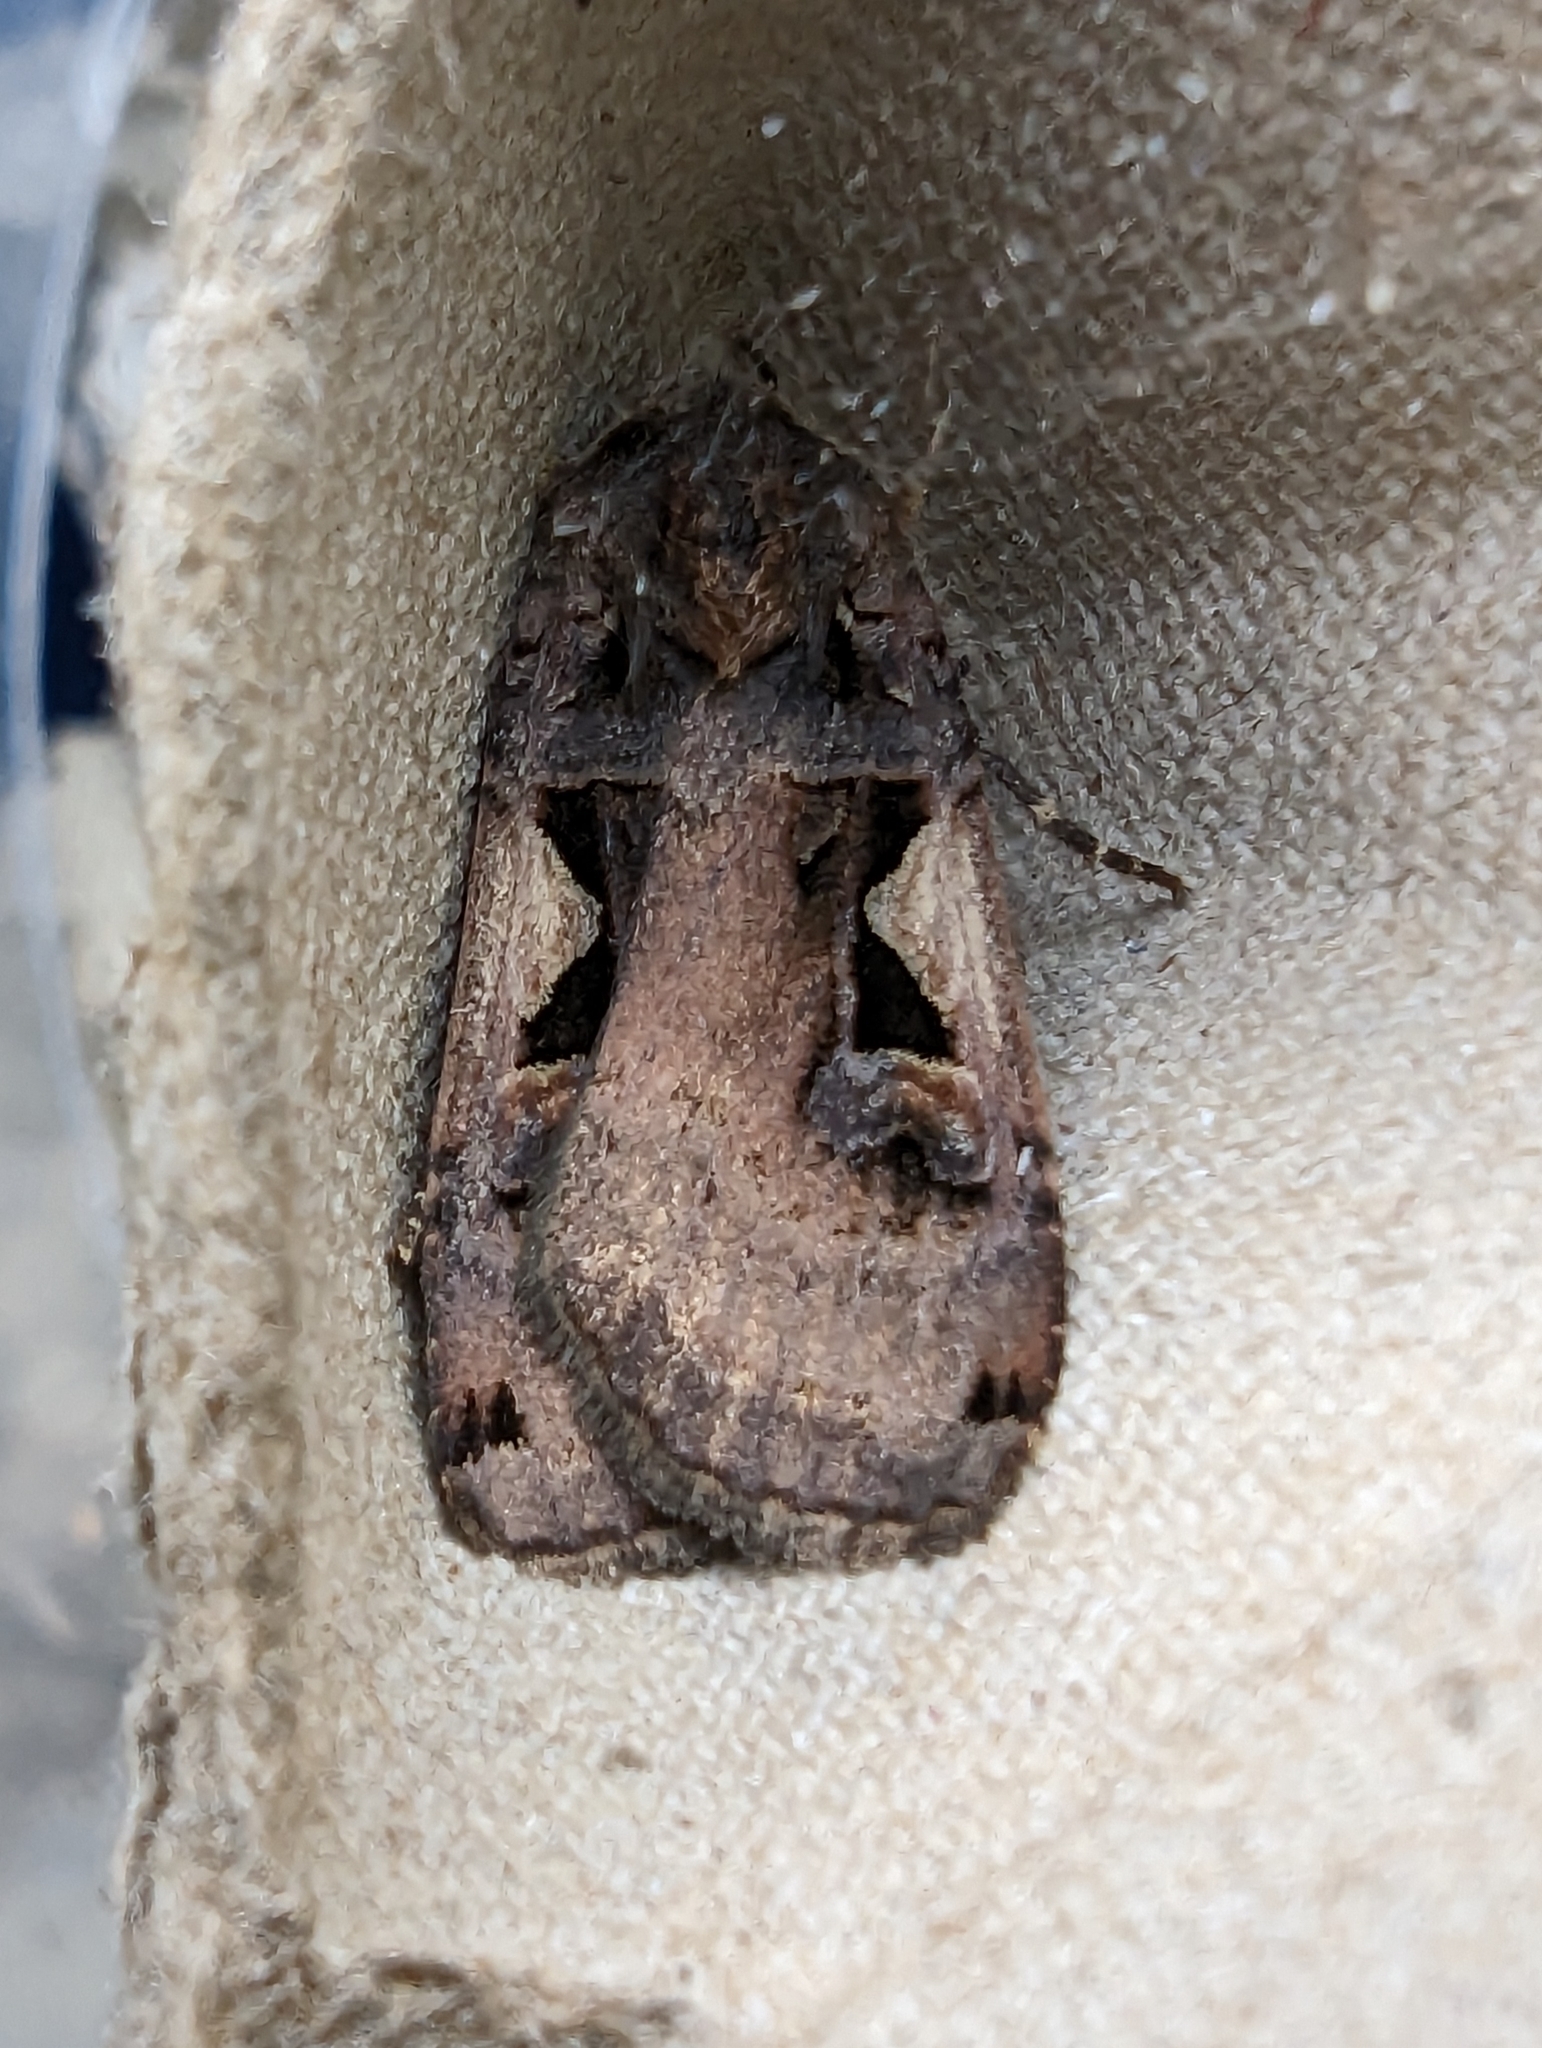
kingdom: Animalia
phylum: Arthropoda
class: Insecta
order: Lepidoptera
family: Noctuidae
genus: Xestia
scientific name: Xestia c-nigrum
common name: Setaceous hebrew character
